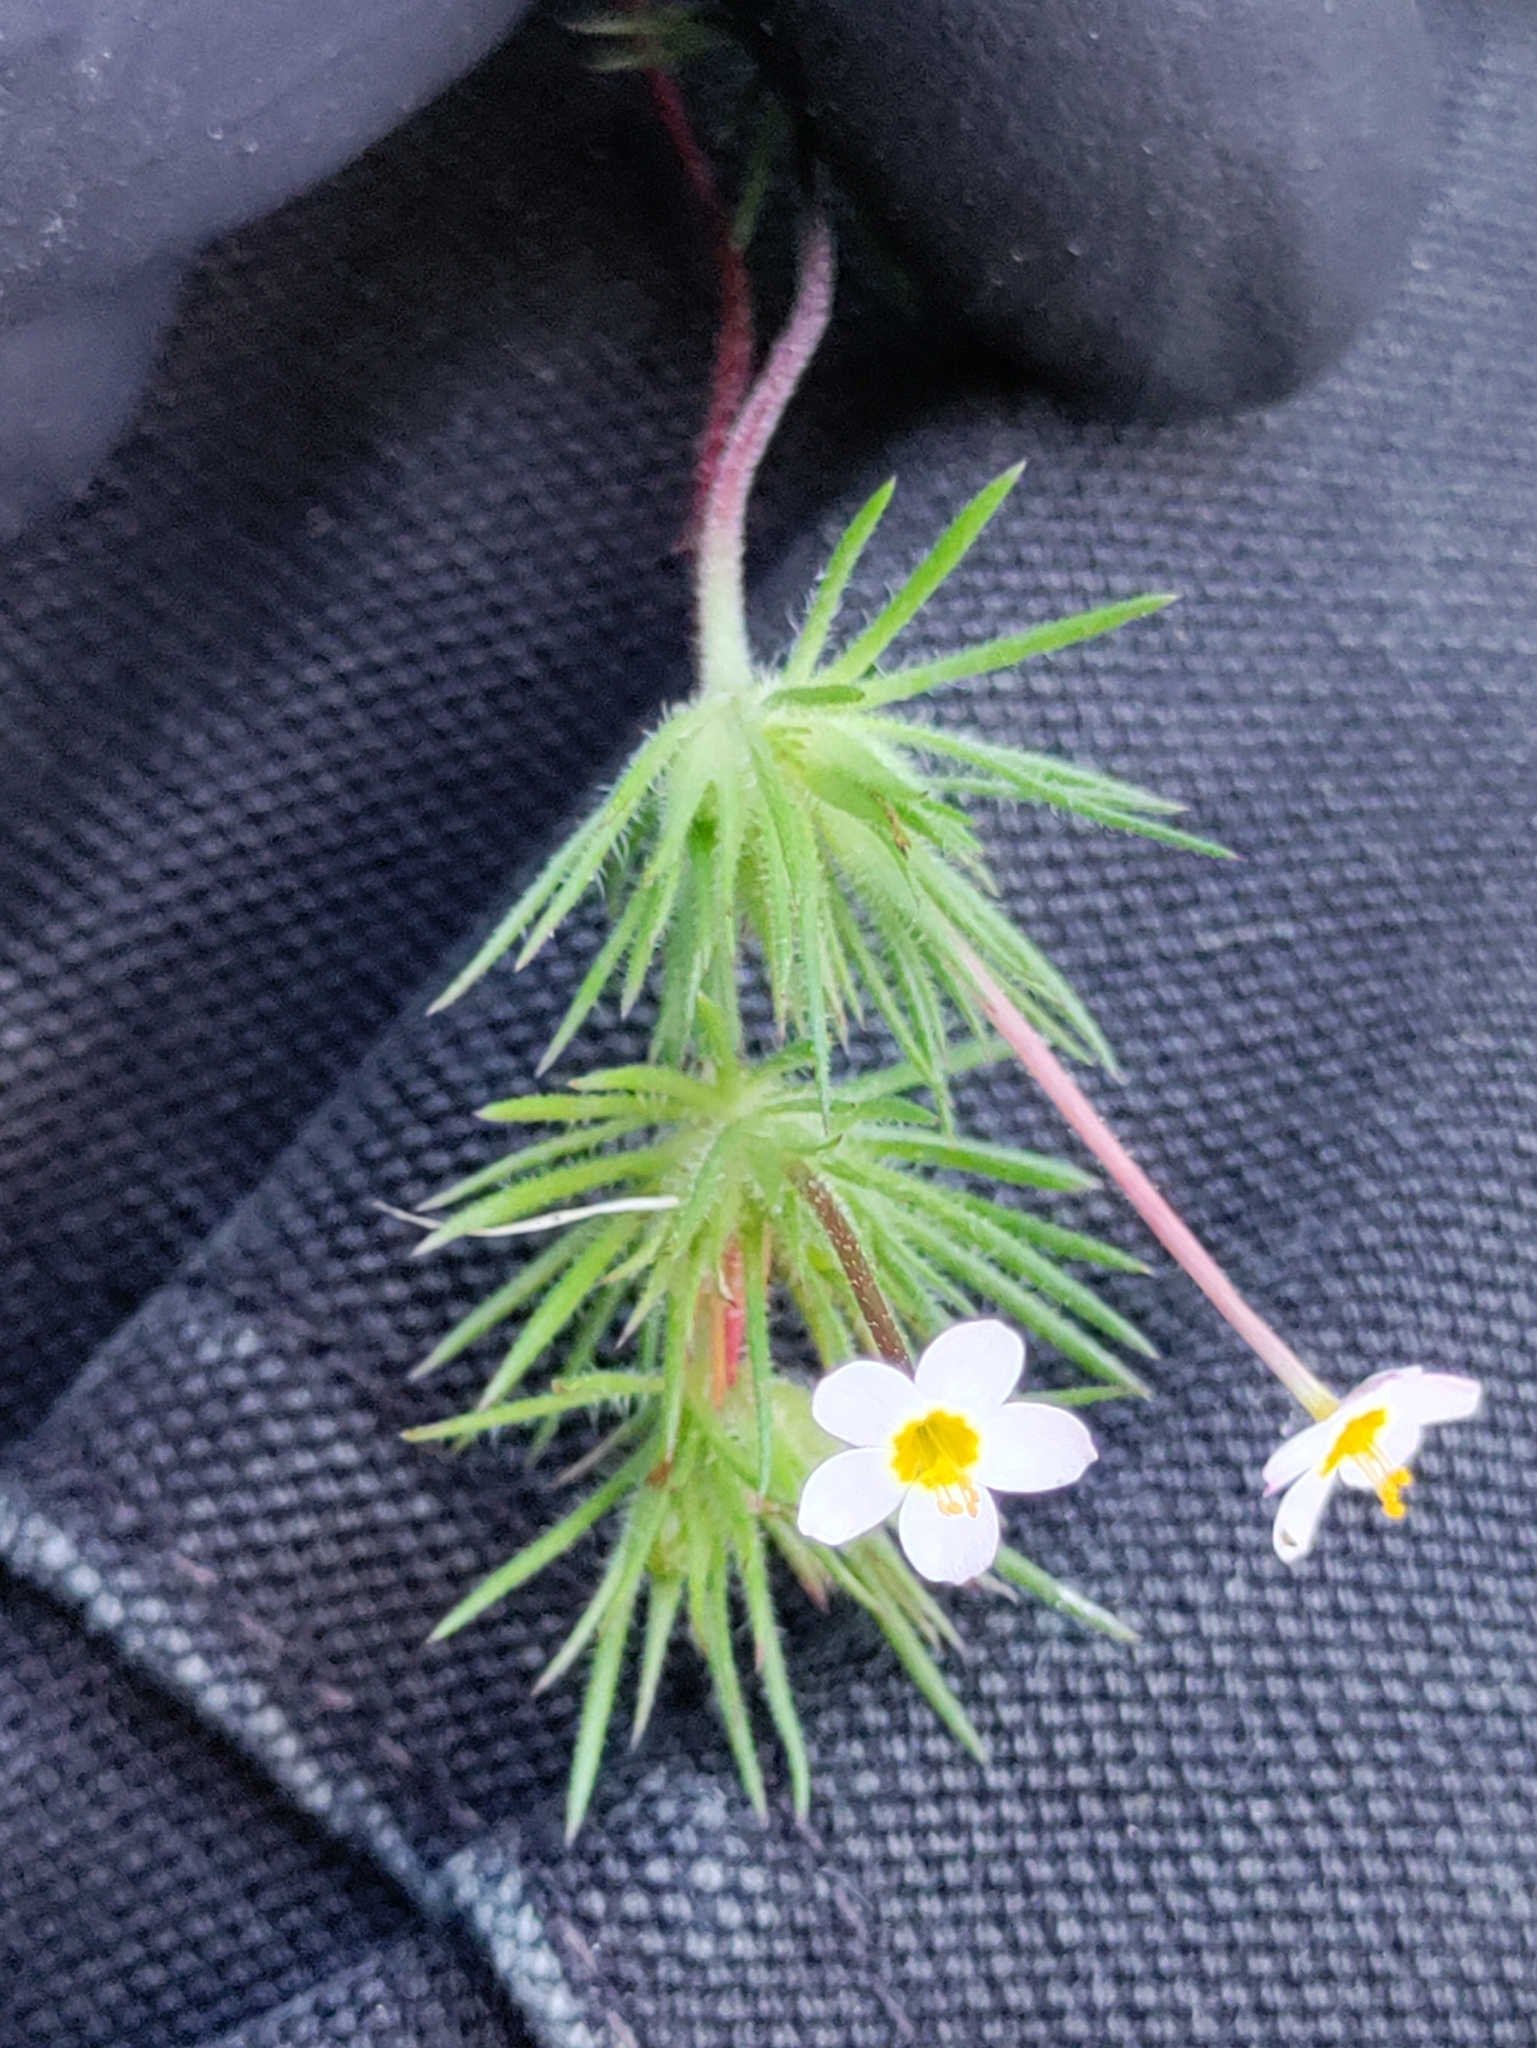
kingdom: Plantae
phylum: Tracheophyta
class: Magnoliopsida
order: Ericales
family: Polemoniaceae
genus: Leptosiphon
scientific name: Leptosiphon bicolor
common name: True babystars
